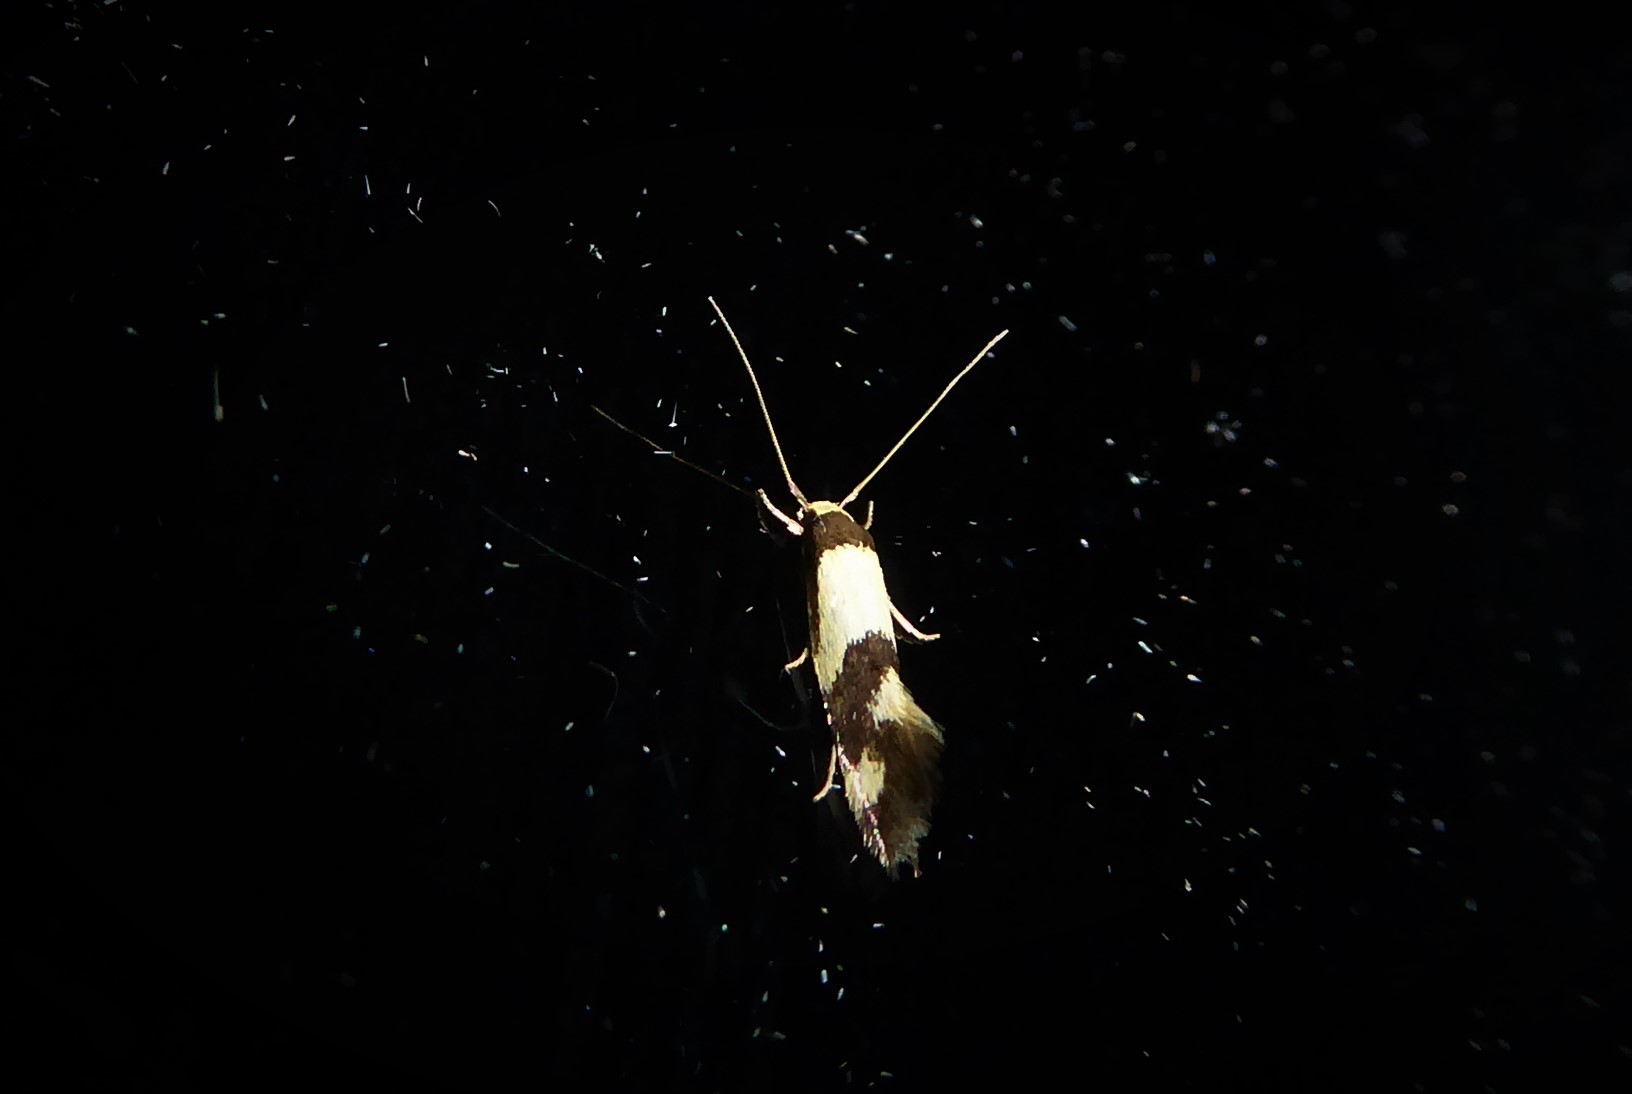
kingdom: Animalia
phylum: Arthropoda
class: Insecta
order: Lepidoptera
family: Tineidae
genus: Opogona
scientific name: Opogona comptella
